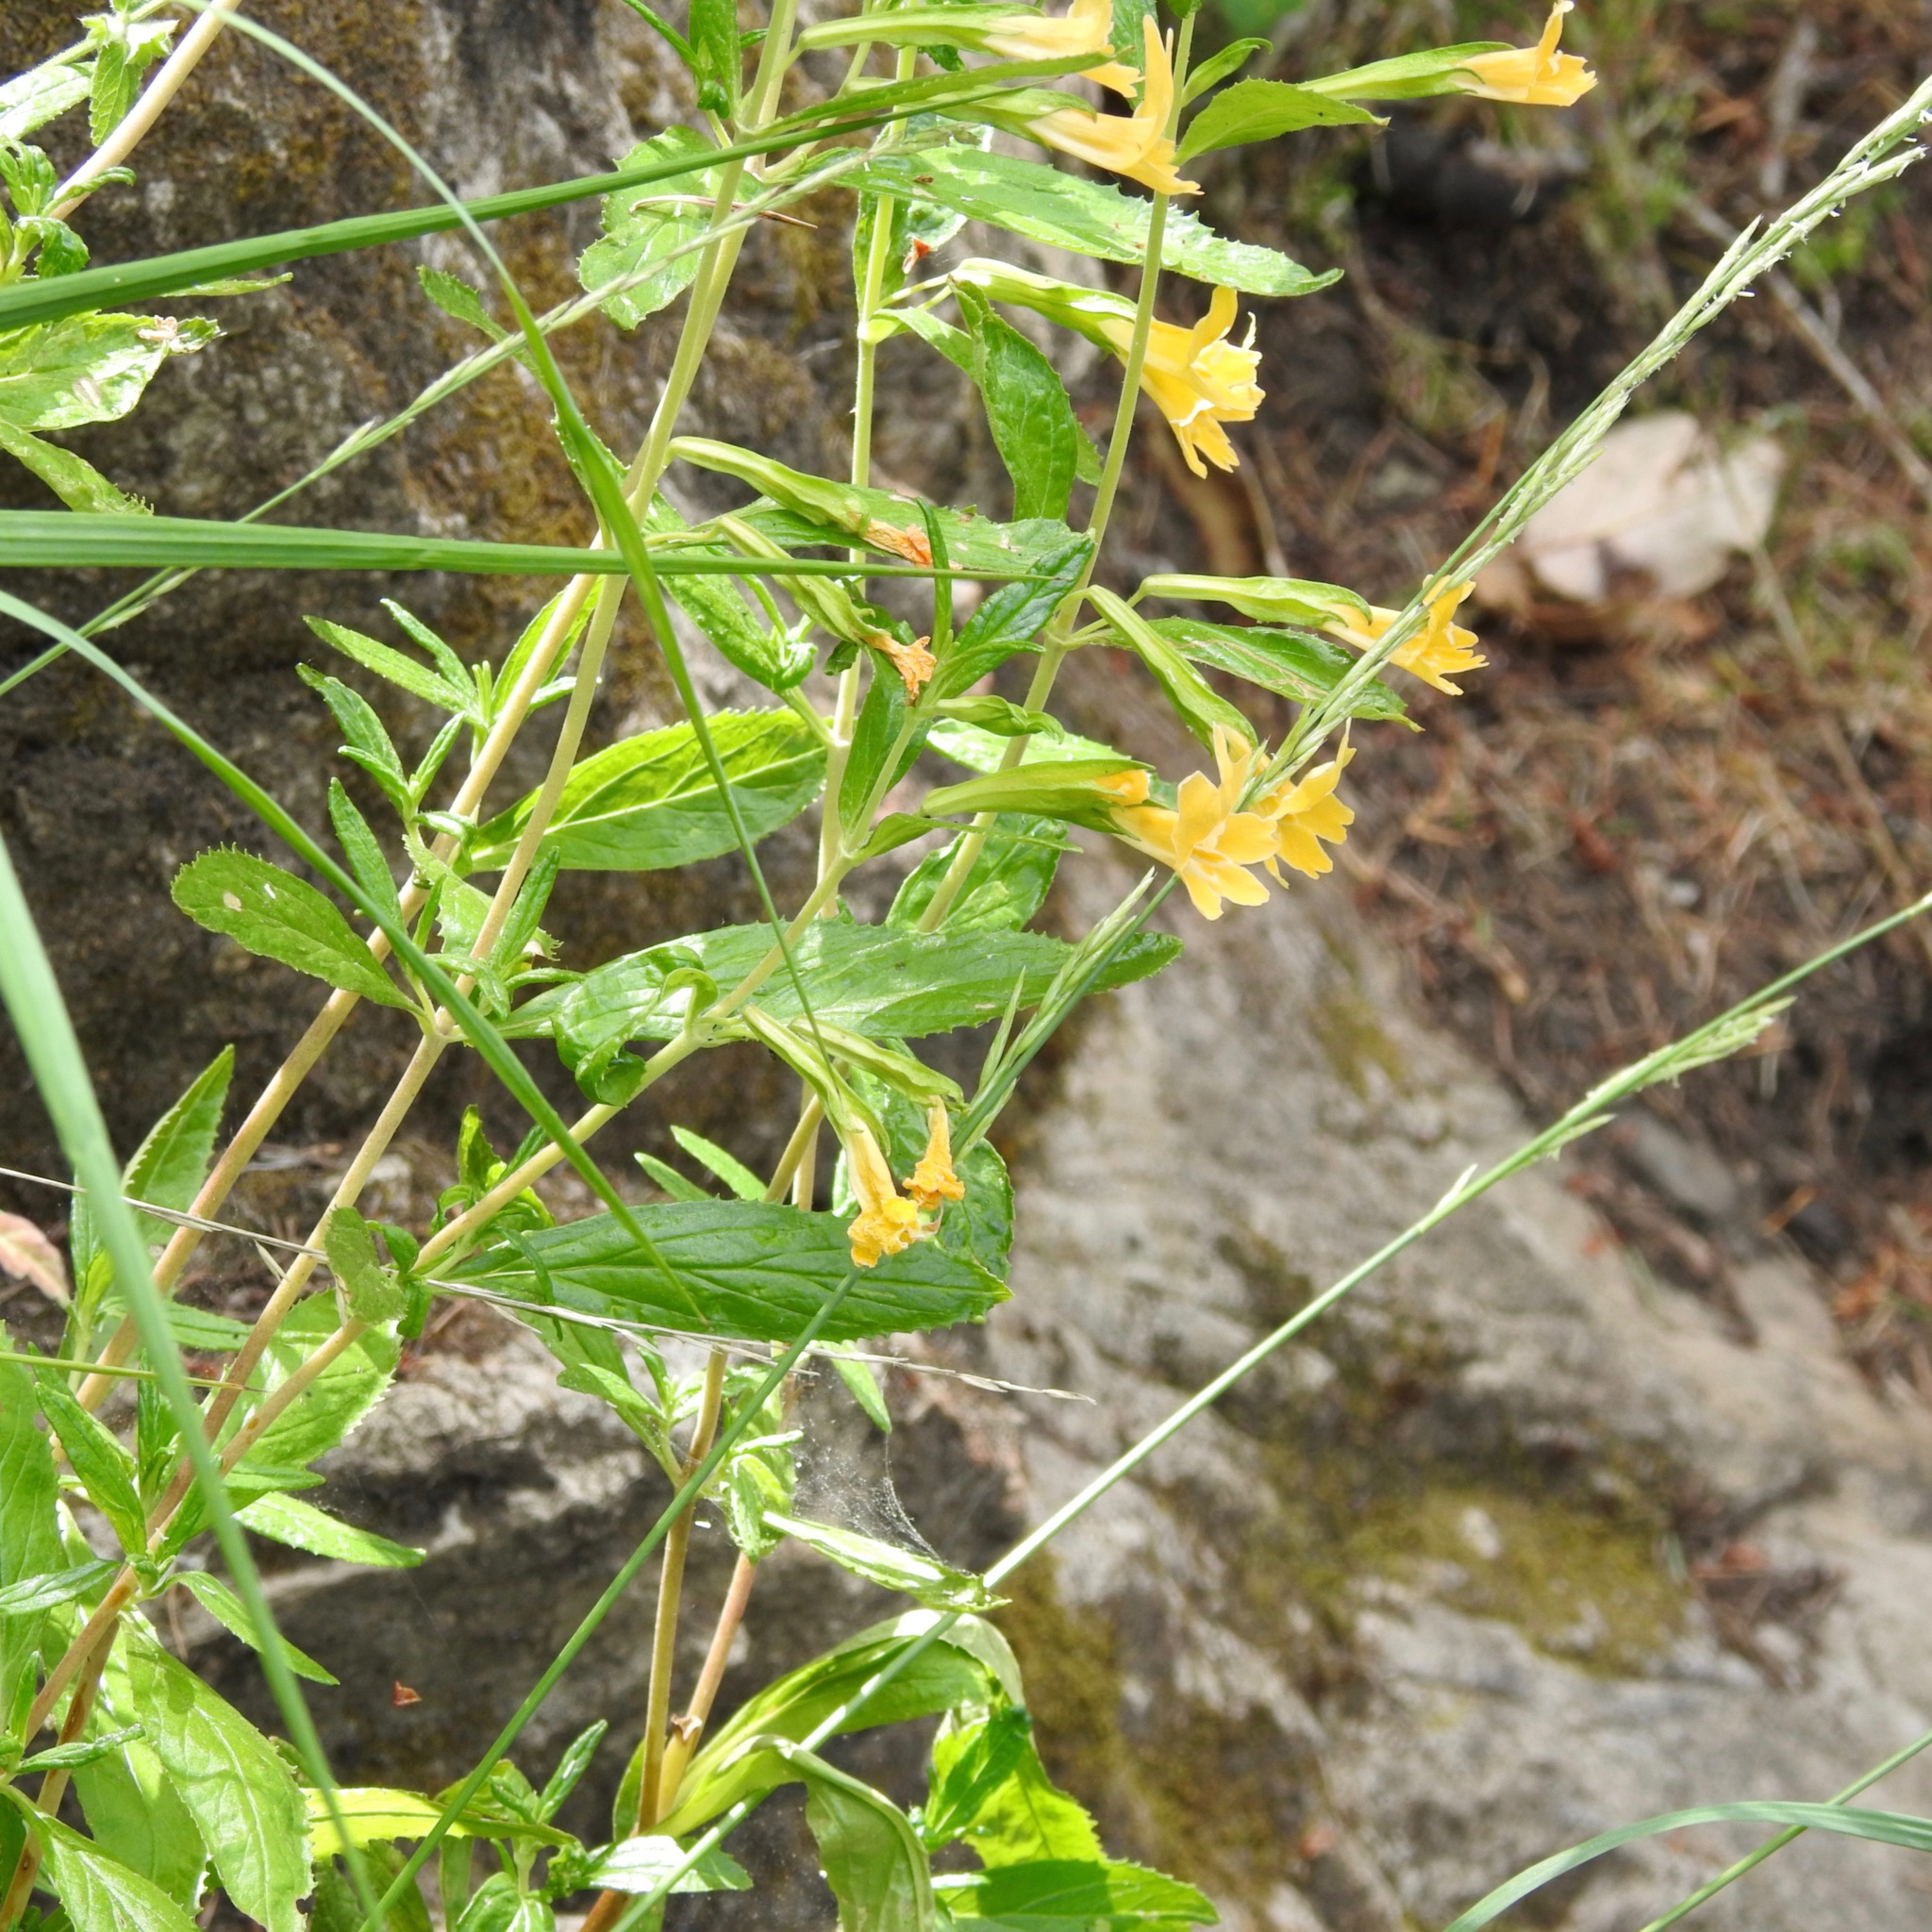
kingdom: Plantae
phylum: Tracheophyta
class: Magnoliopsida
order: Lamiales
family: Phrymaceae
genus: Diplacus
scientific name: Diplacus aurantiacus
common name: Bush monkey-flower
